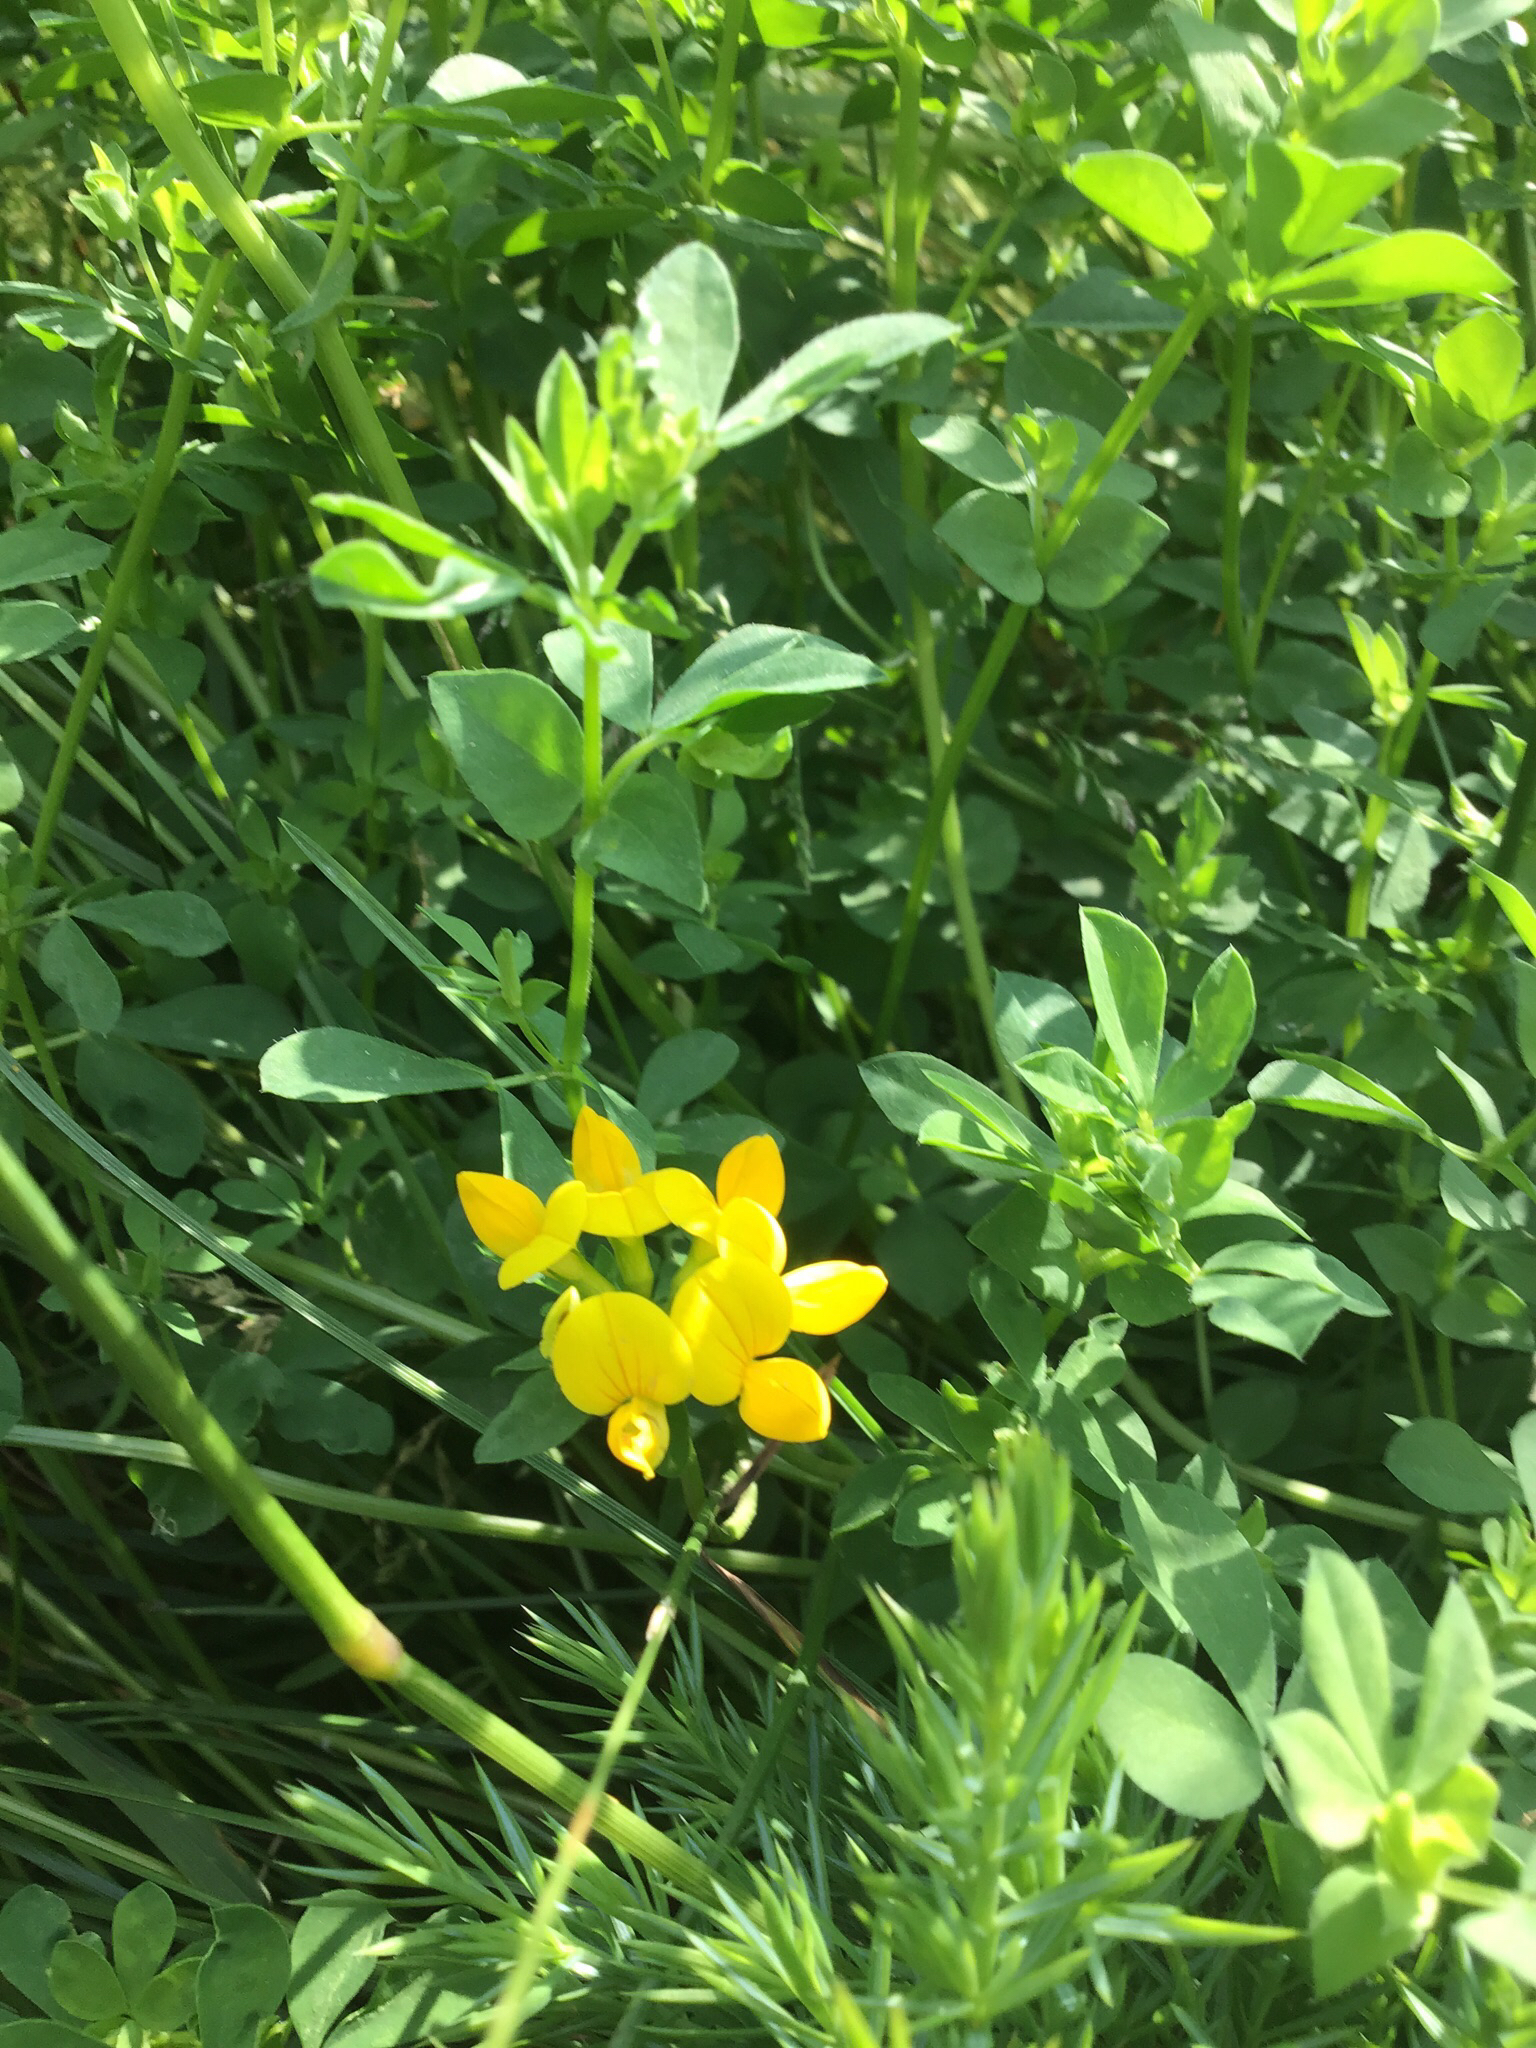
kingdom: Plantae
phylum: Tracheophyta
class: Magnoliopsida
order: Fabales
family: Fabaceae
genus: Lotus
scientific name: Lotus corniculatus
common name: Common bird's-foot-trefoil
